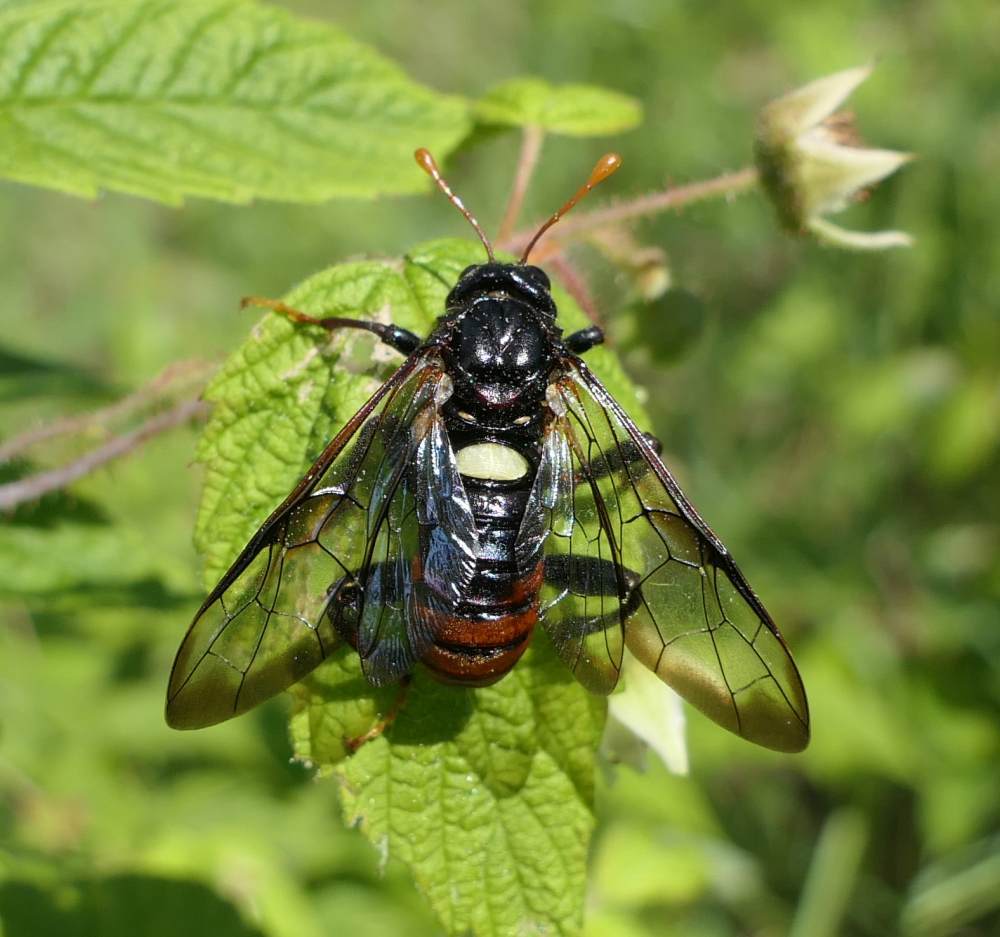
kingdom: Animalia
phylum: Arthropoda
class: Insecta
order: Hymenoptera
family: Cimbicidae
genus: Cimbex
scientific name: Cimbex americana
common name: Elm sawfly
